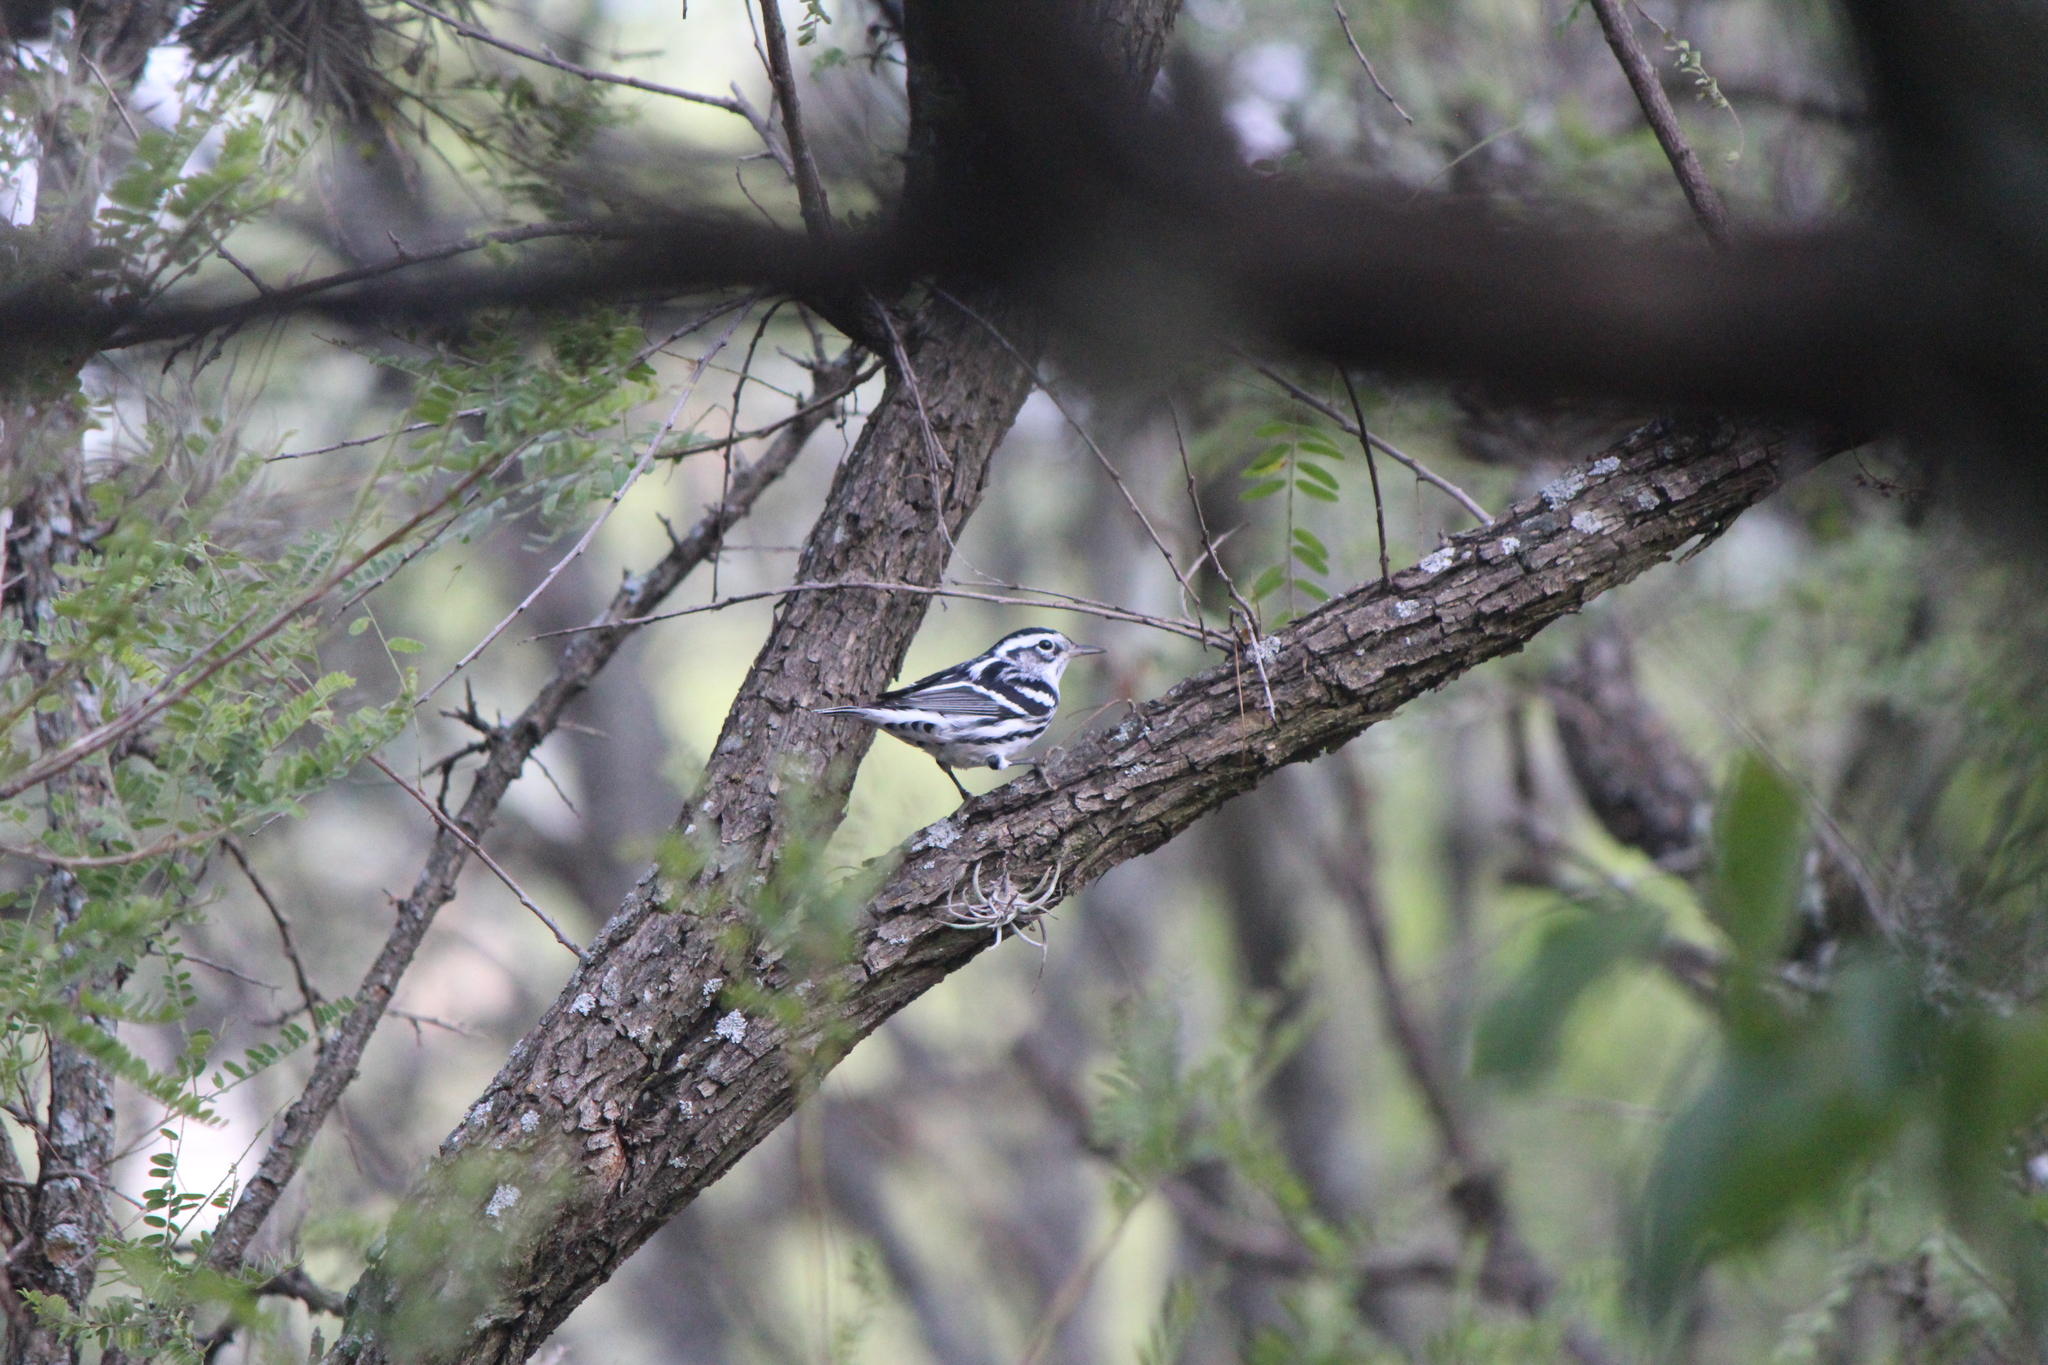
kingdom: Animalia
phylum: Chordata
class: Aves
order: Passeriformes
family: Parulidae
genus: Mniotilta
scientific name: Mniotilta varia
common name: Black-and-white warbler
